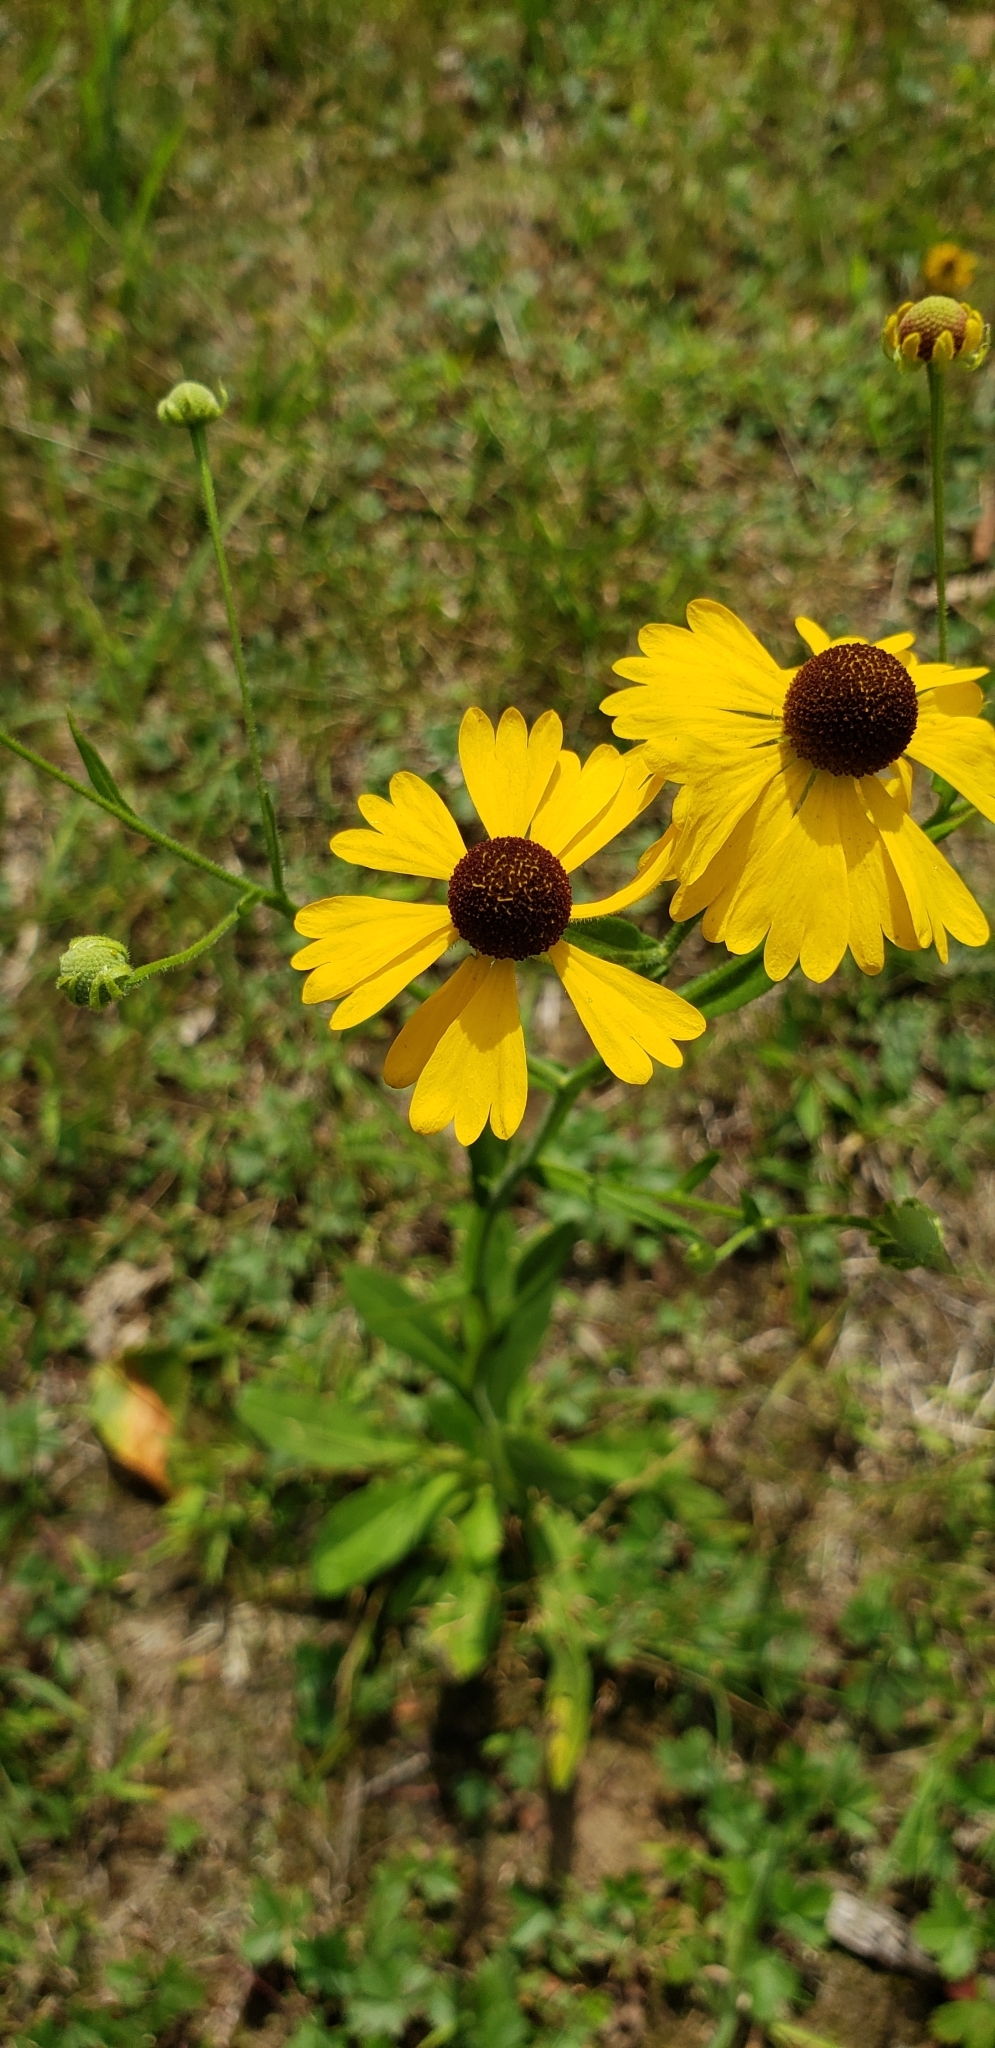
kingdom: Plantae
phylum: Tracheophyta
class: Magnoliopsida
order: Asterales
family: Asteraceae
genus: Helenium
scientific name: Helenium flexuosum
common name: Naked-flowered sneezeweed
